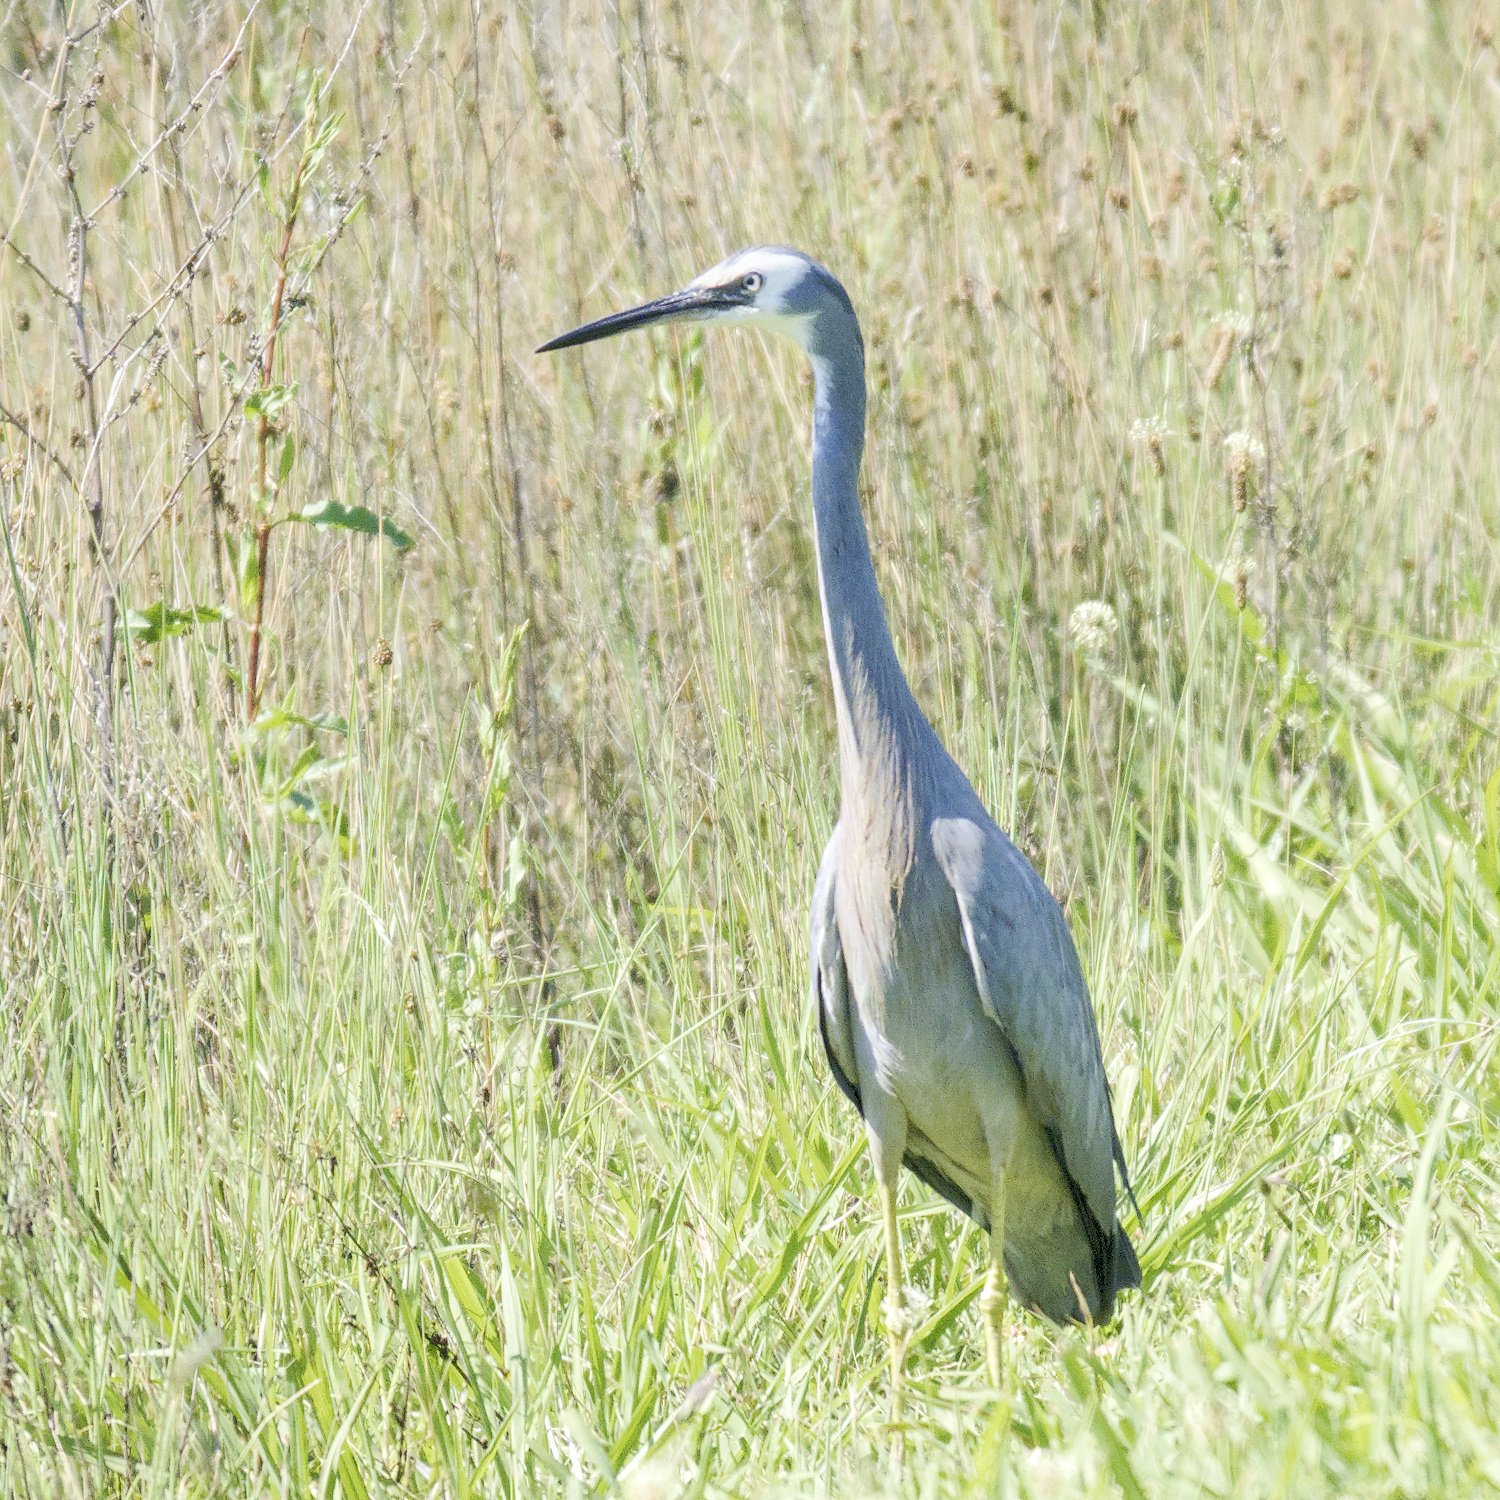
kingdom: Animalia
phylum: Chordata
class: Aves
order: Pelecaniformes
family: Ardeidae
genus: Egretta
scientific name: Egretta novaehollandiae
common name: White-faced heron
